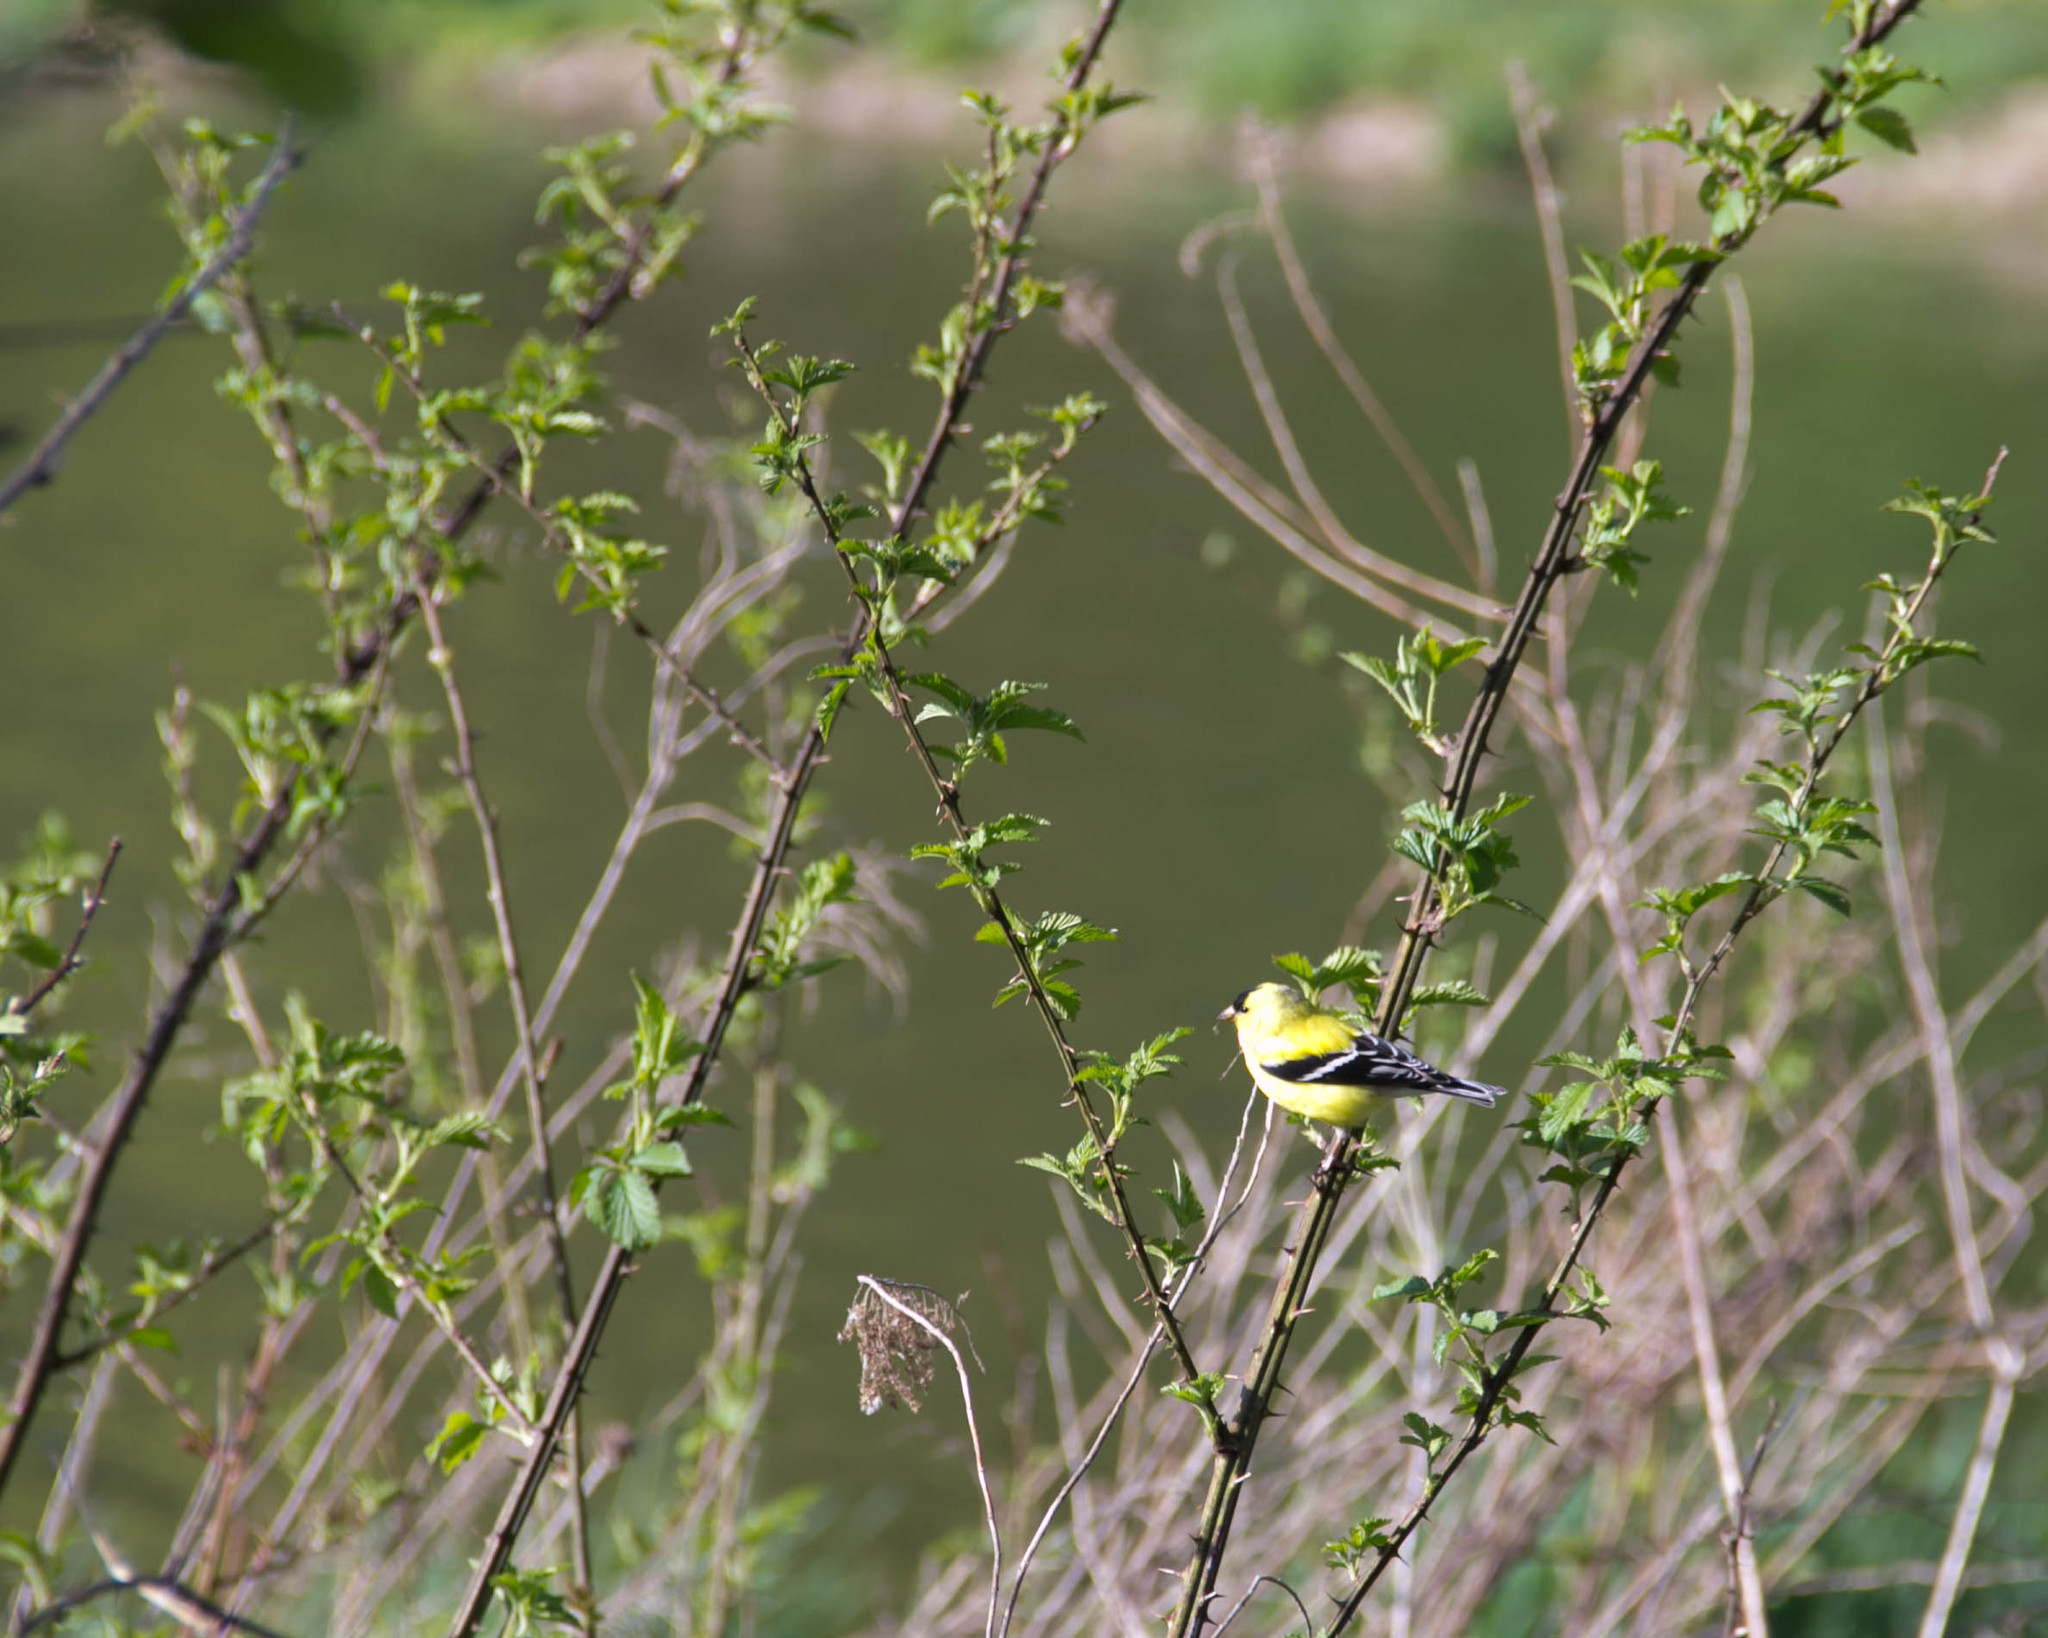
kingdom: Animalia
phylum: Chordata
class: Aves
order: Passeriformes
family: Fringillidae
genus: Spinus
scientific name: Spinus tristis
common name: American goldfinch
